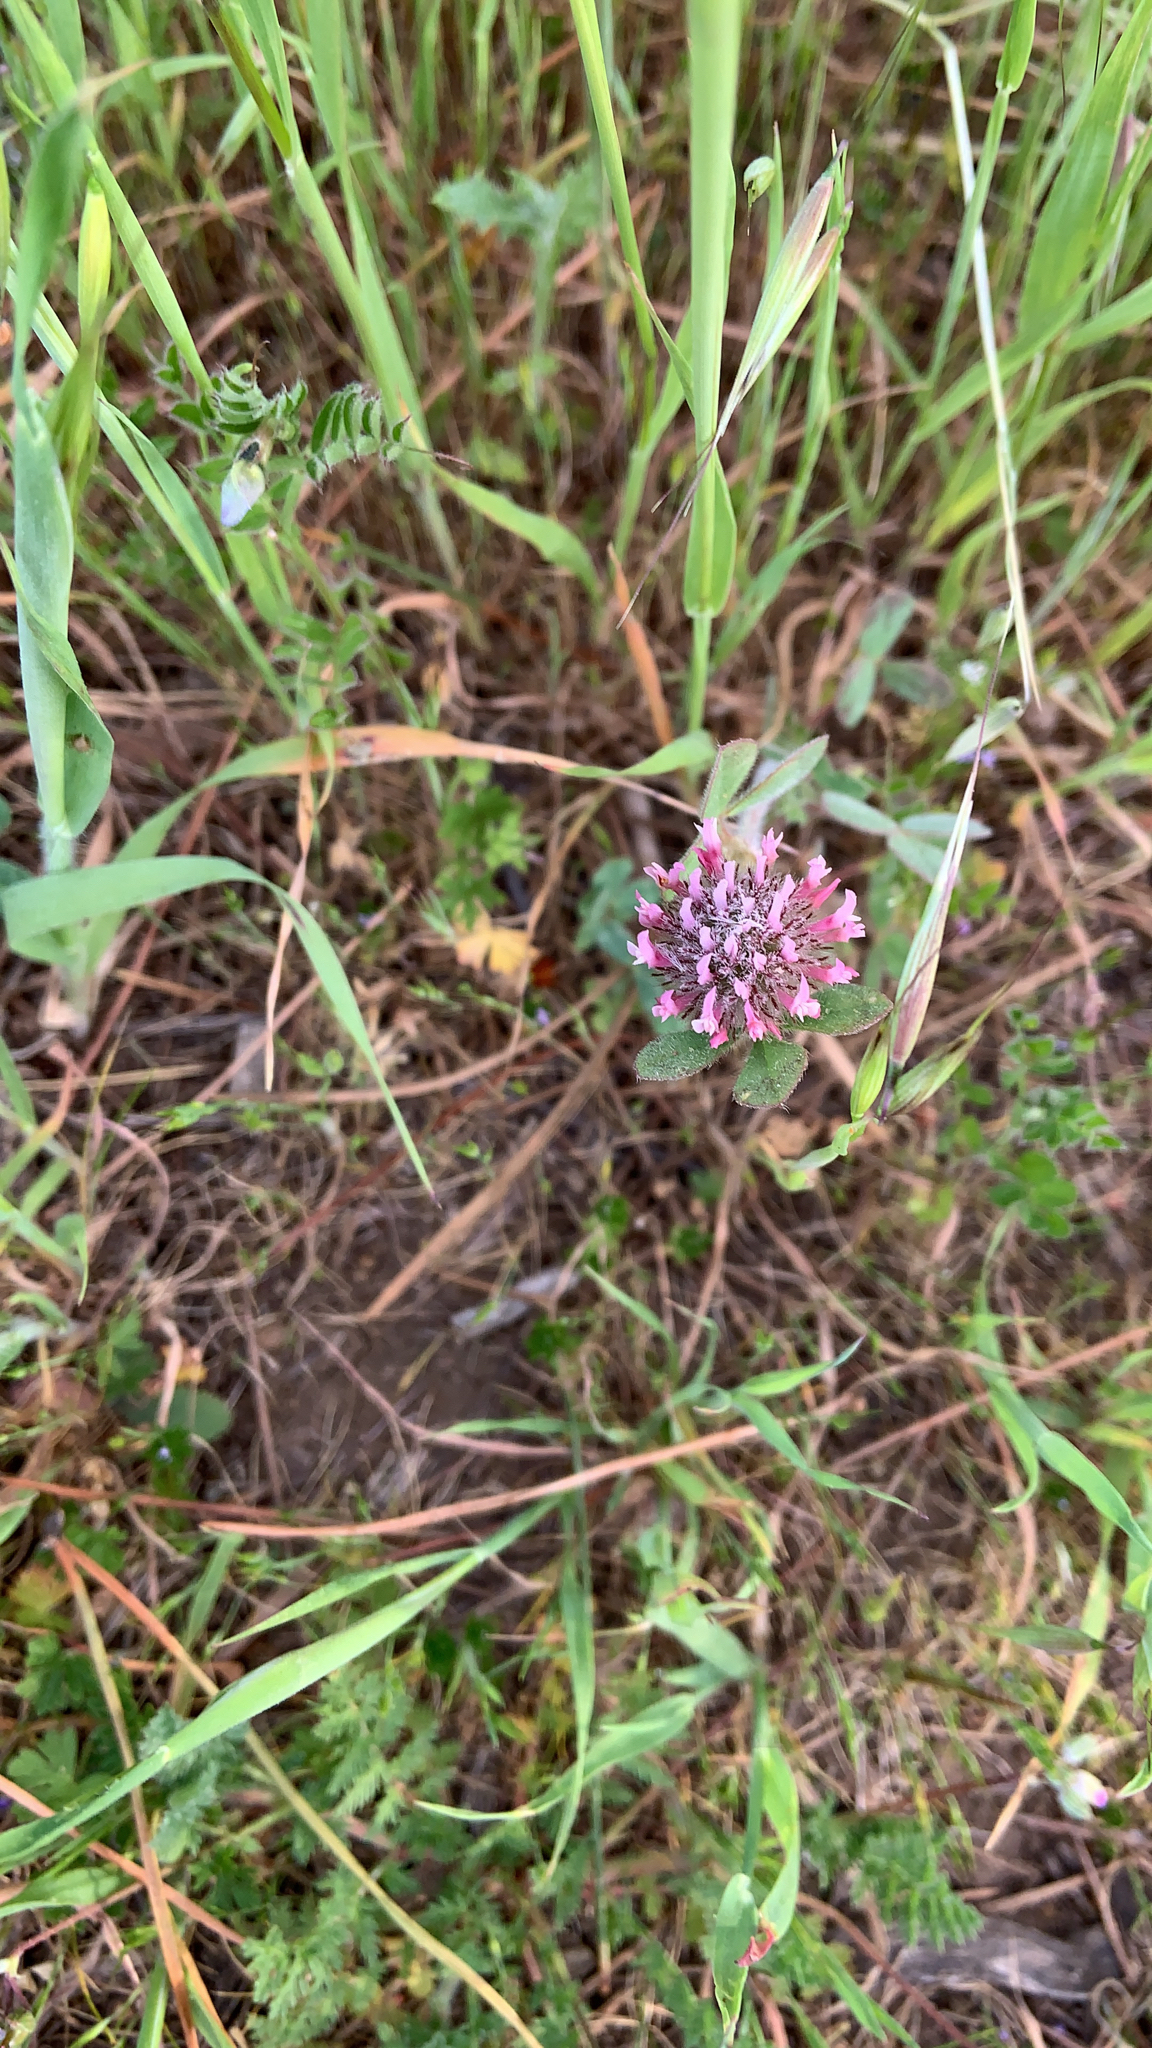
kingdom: Plantae
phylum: Tracheophyta
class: Magnoliopsida
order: Fabales
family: Fabaceae
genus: Trifolium
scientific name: Trifolium hirtum
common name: Rose clover
